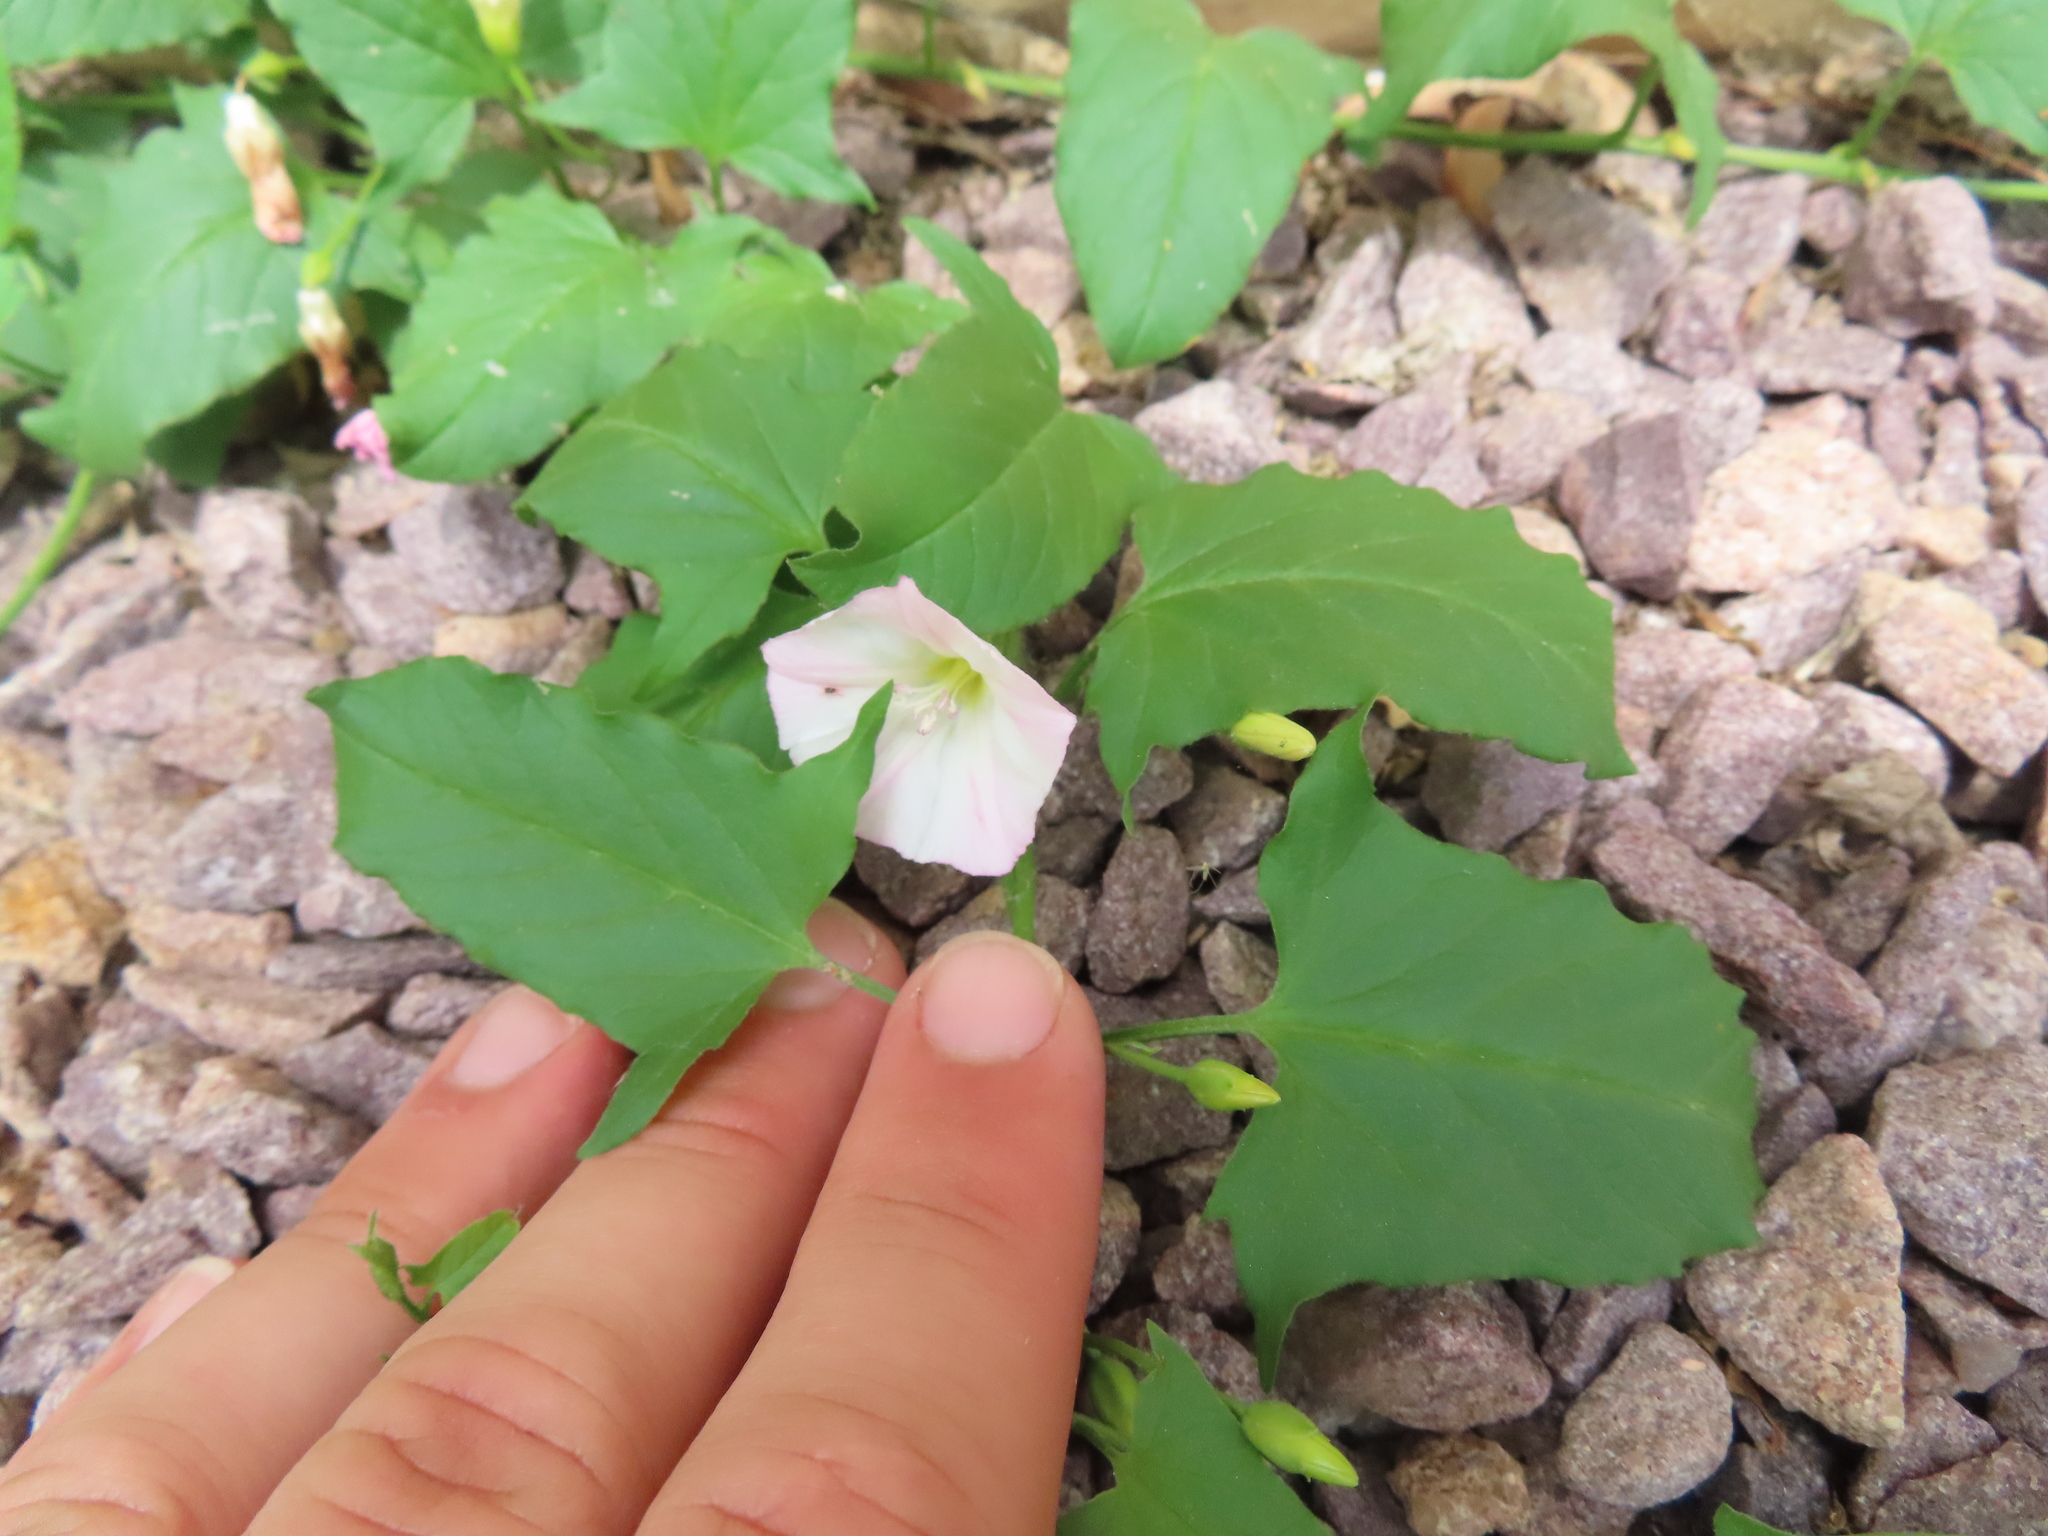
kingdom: Plantae
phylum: Tracheophyta
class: Magnoliopsida
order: Solanales
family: Convolvulaceae
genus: Convolvulus
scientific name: Convolvulus arvensis
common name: Field bindweed
